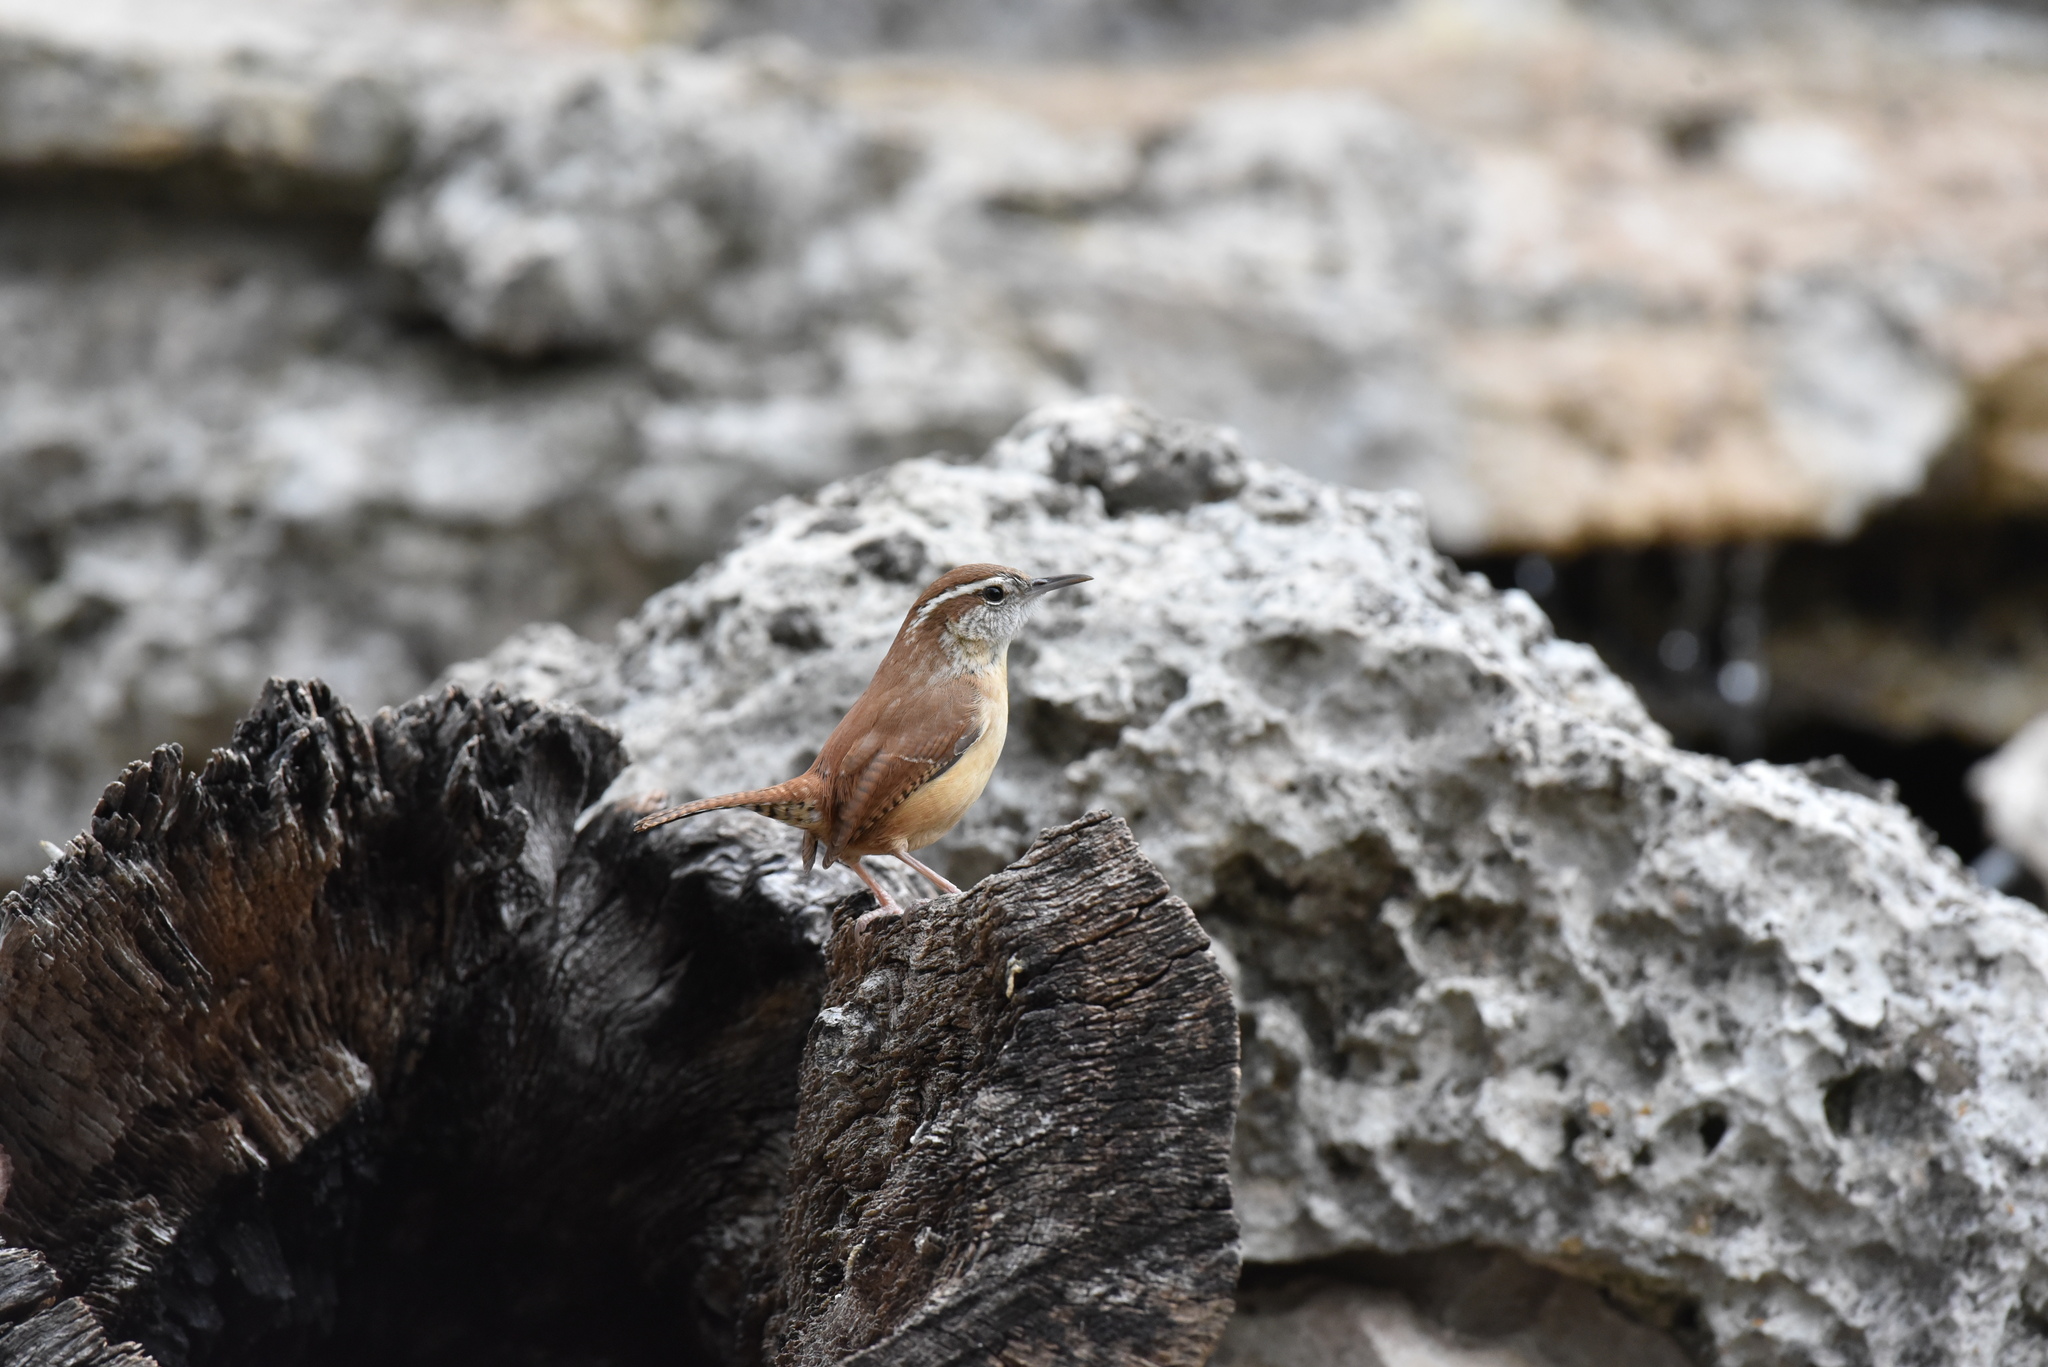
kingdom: Animalia
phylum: Chordata
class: Aves
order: Passeriformes
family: Troglodytidae
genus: Thryothorus
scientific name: Thryothorus ludovicianus
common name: Carolina wren
